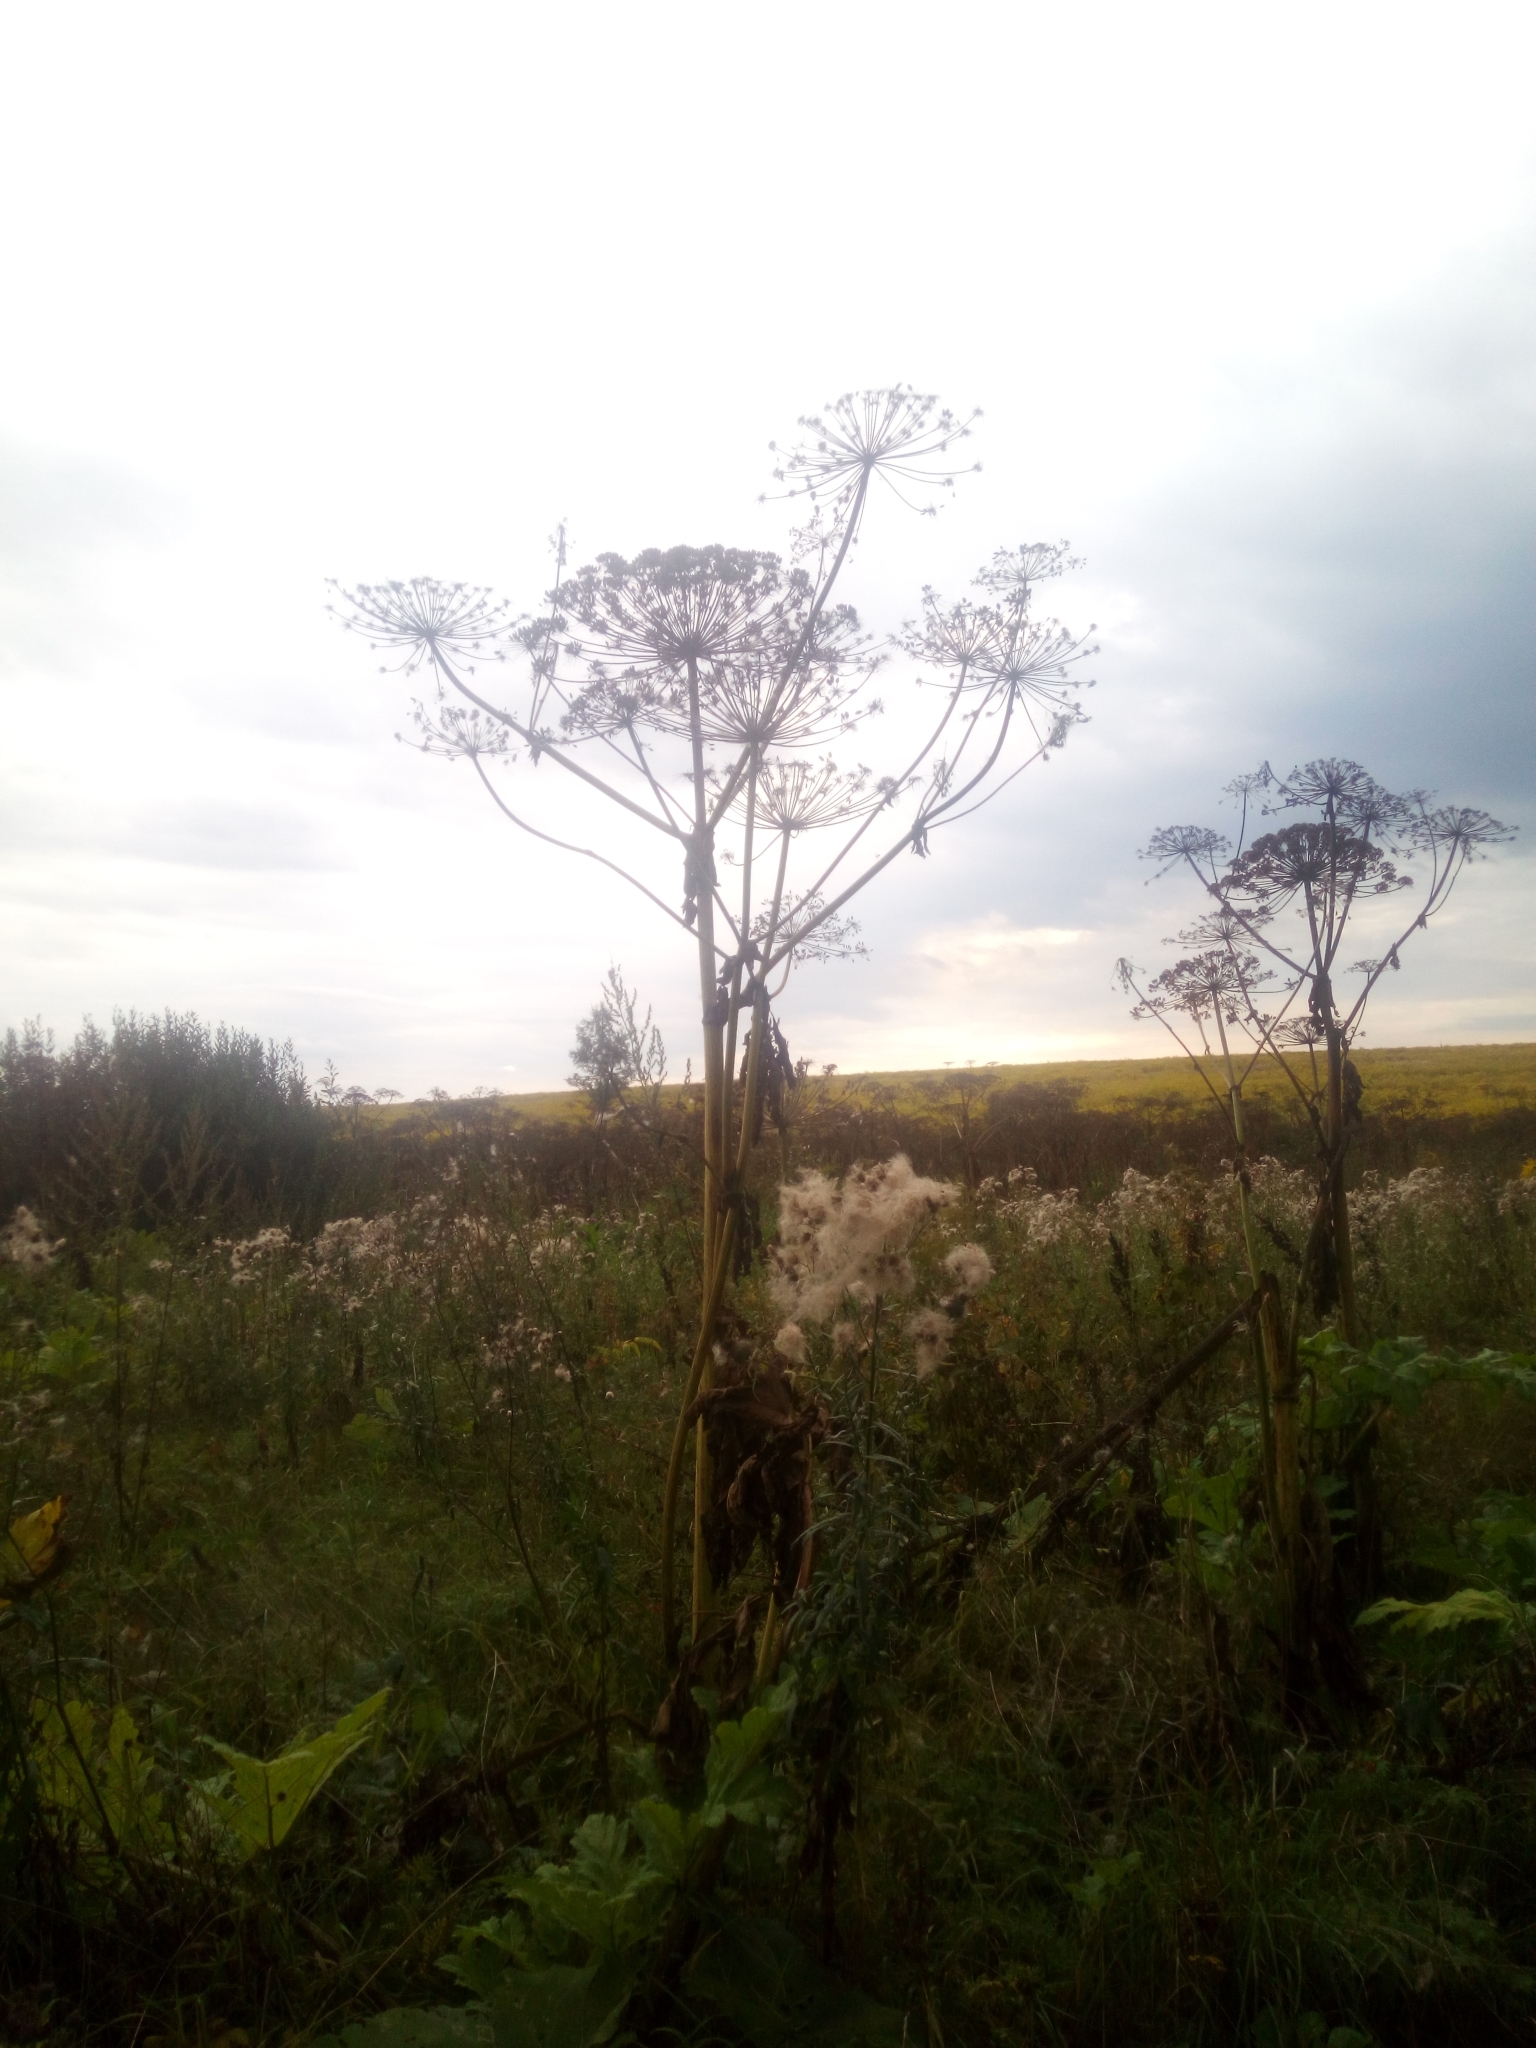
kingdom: Plantae
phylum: Tracheophyta
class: Magnoliopsida
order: Apiales
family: Apiaceae
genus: Heracleum
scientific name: Heracleum sosnowskyi
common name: Sosnowsky's hogweed
